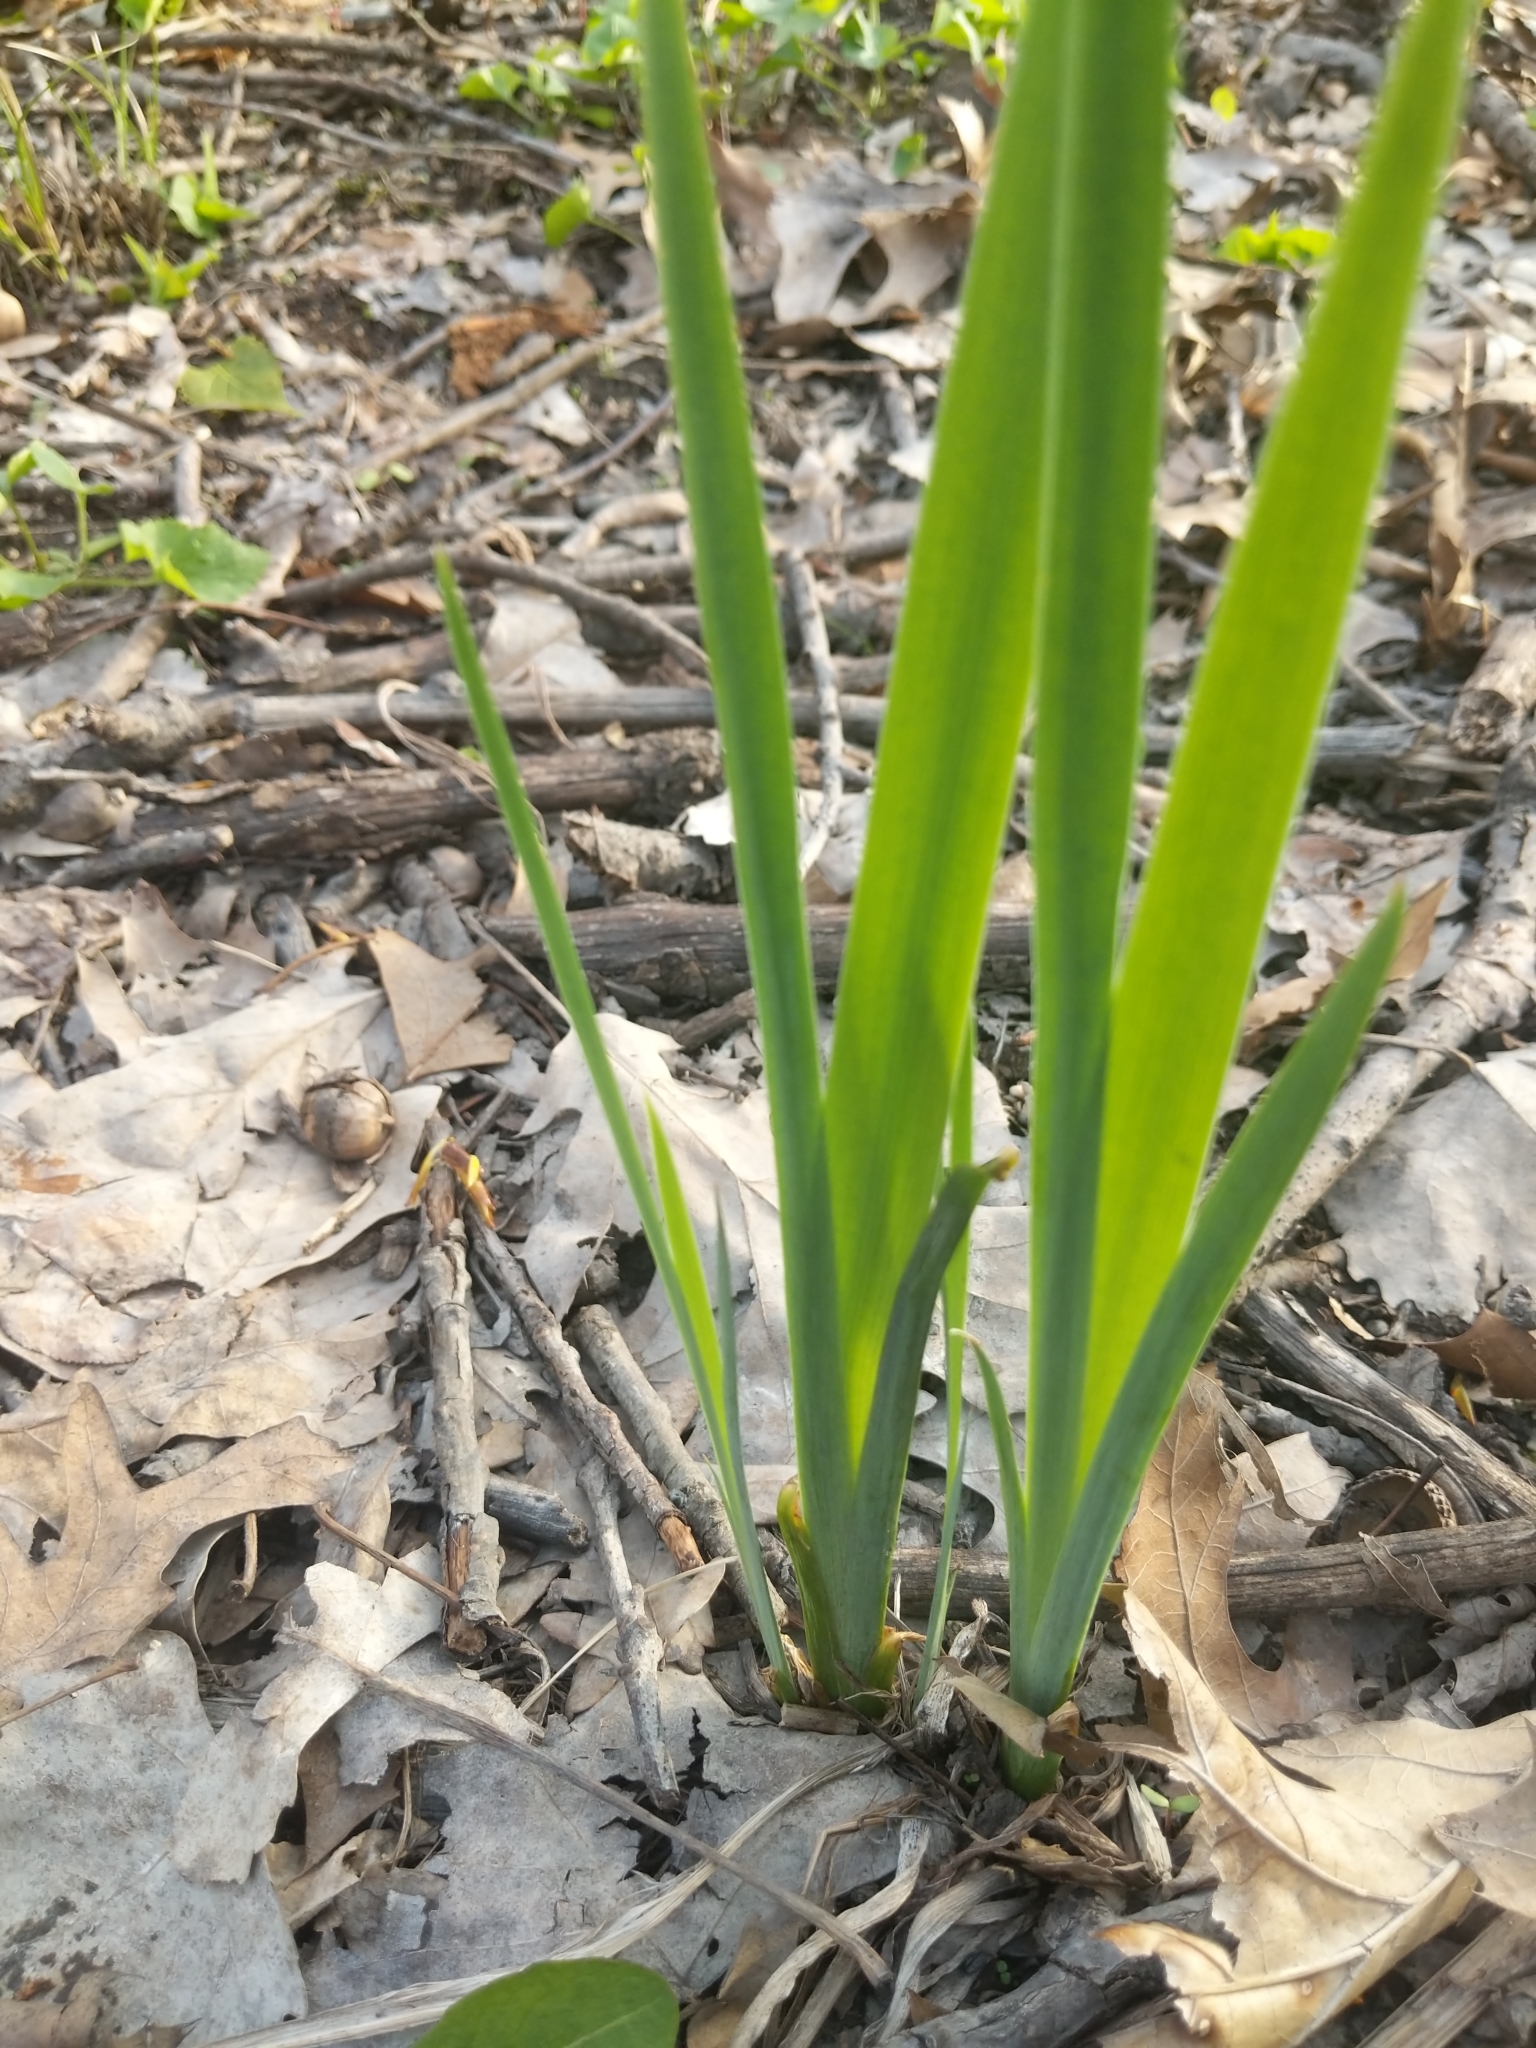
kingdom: Plantae
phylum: Tracheophyta
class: Liliopsida
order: Asparagales
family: Iridaceae
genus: Iris
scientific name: Iris virginica
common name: Southern blue flag
